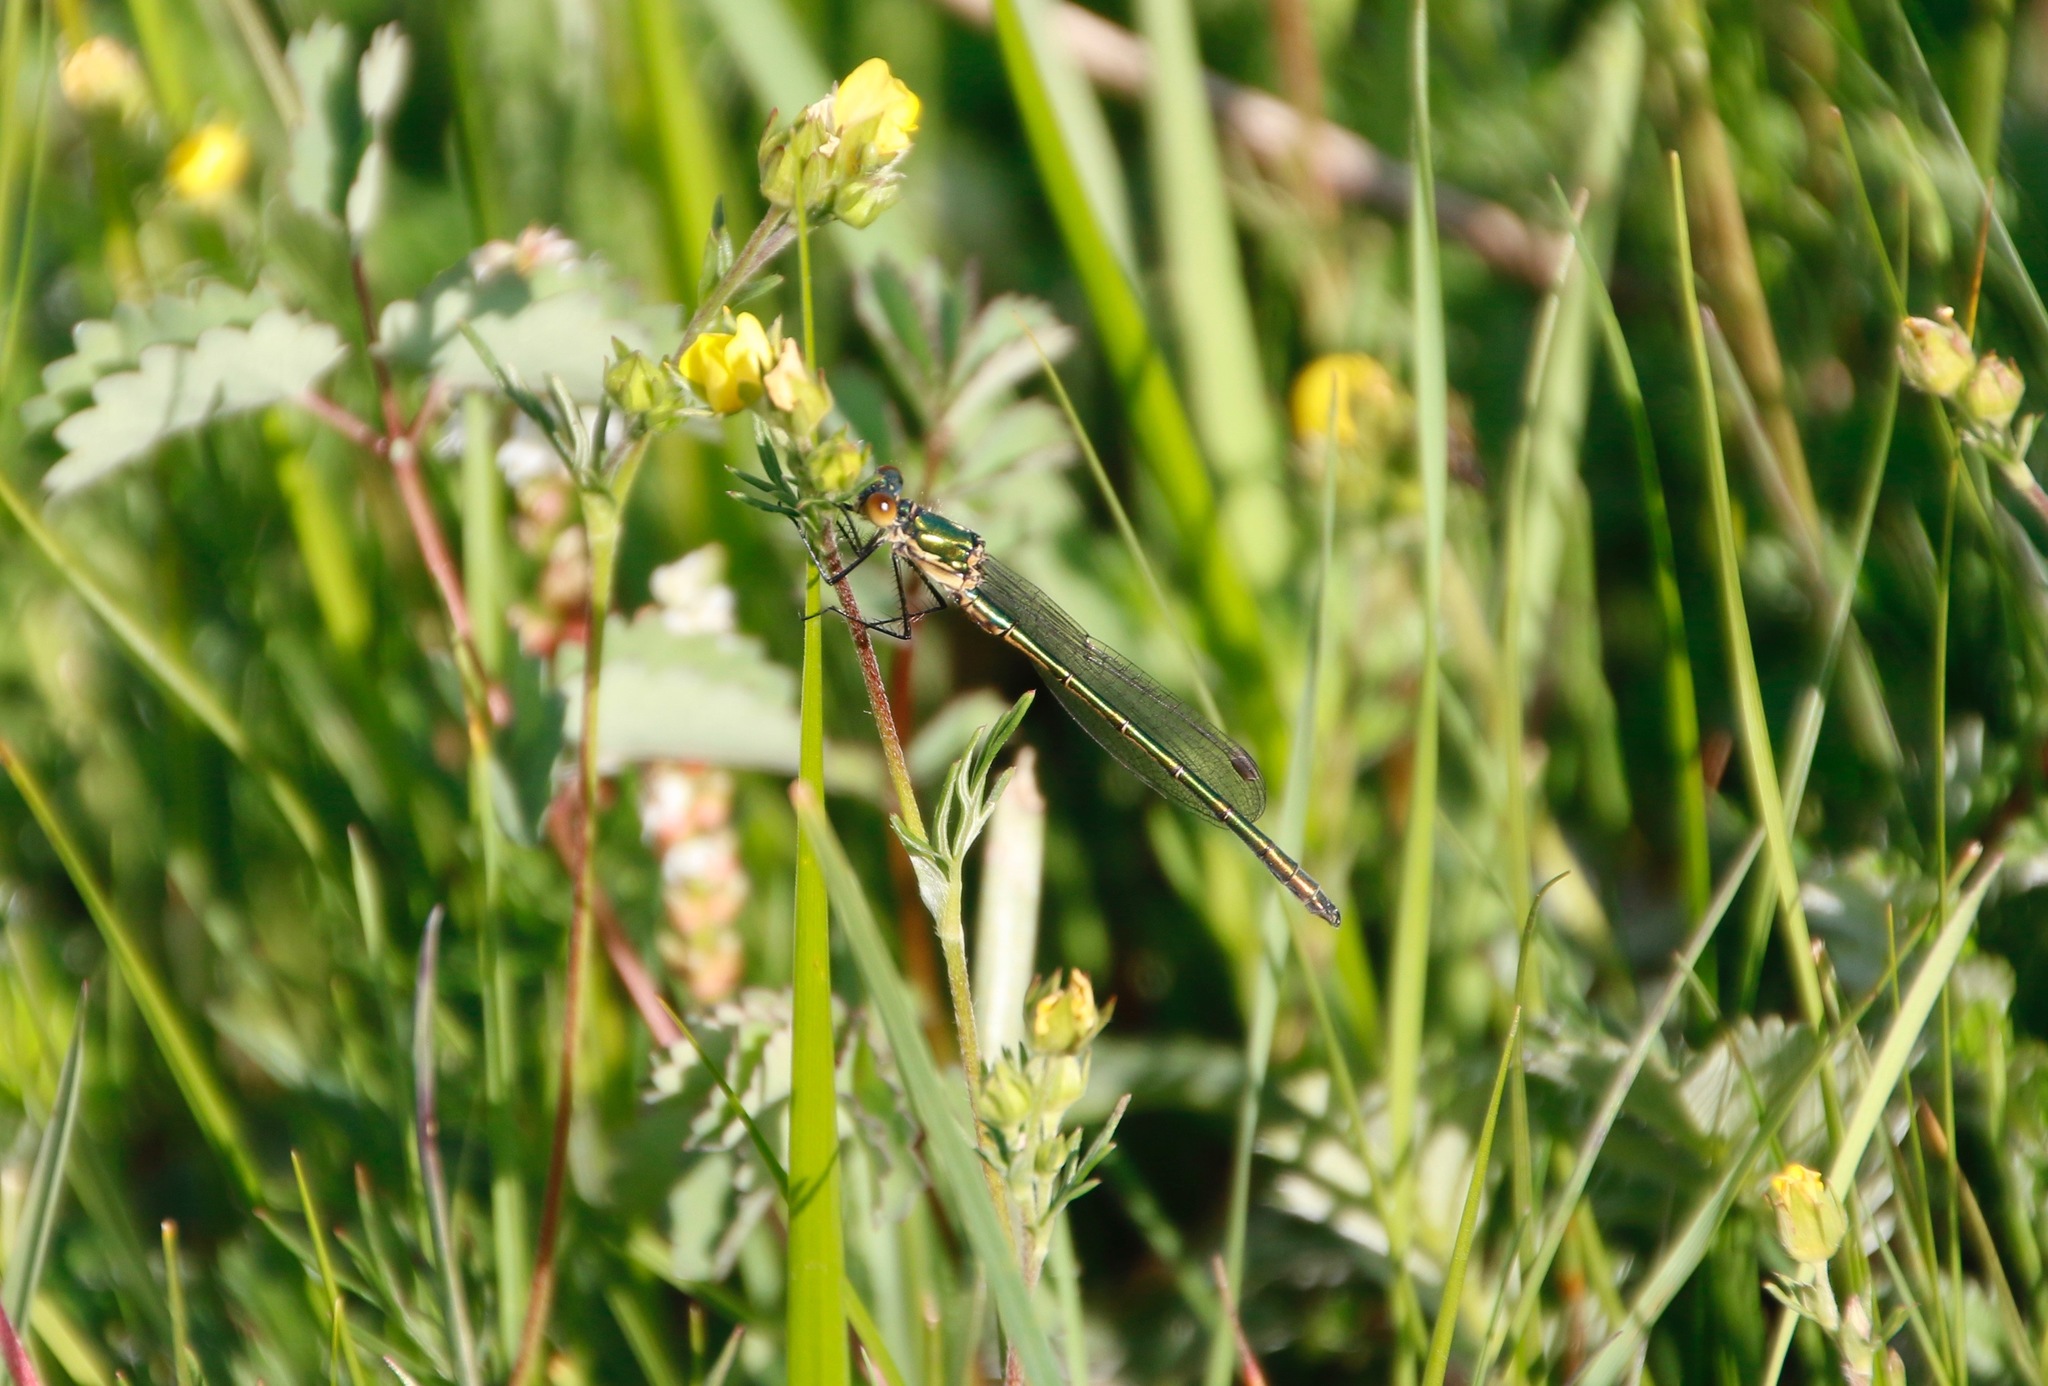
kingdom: Animalia
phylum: Arthropoda
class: Insecta
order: Odonata
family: Lestidae
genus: Lestes
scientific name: Lestes sponsa
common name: Common spreadwing
